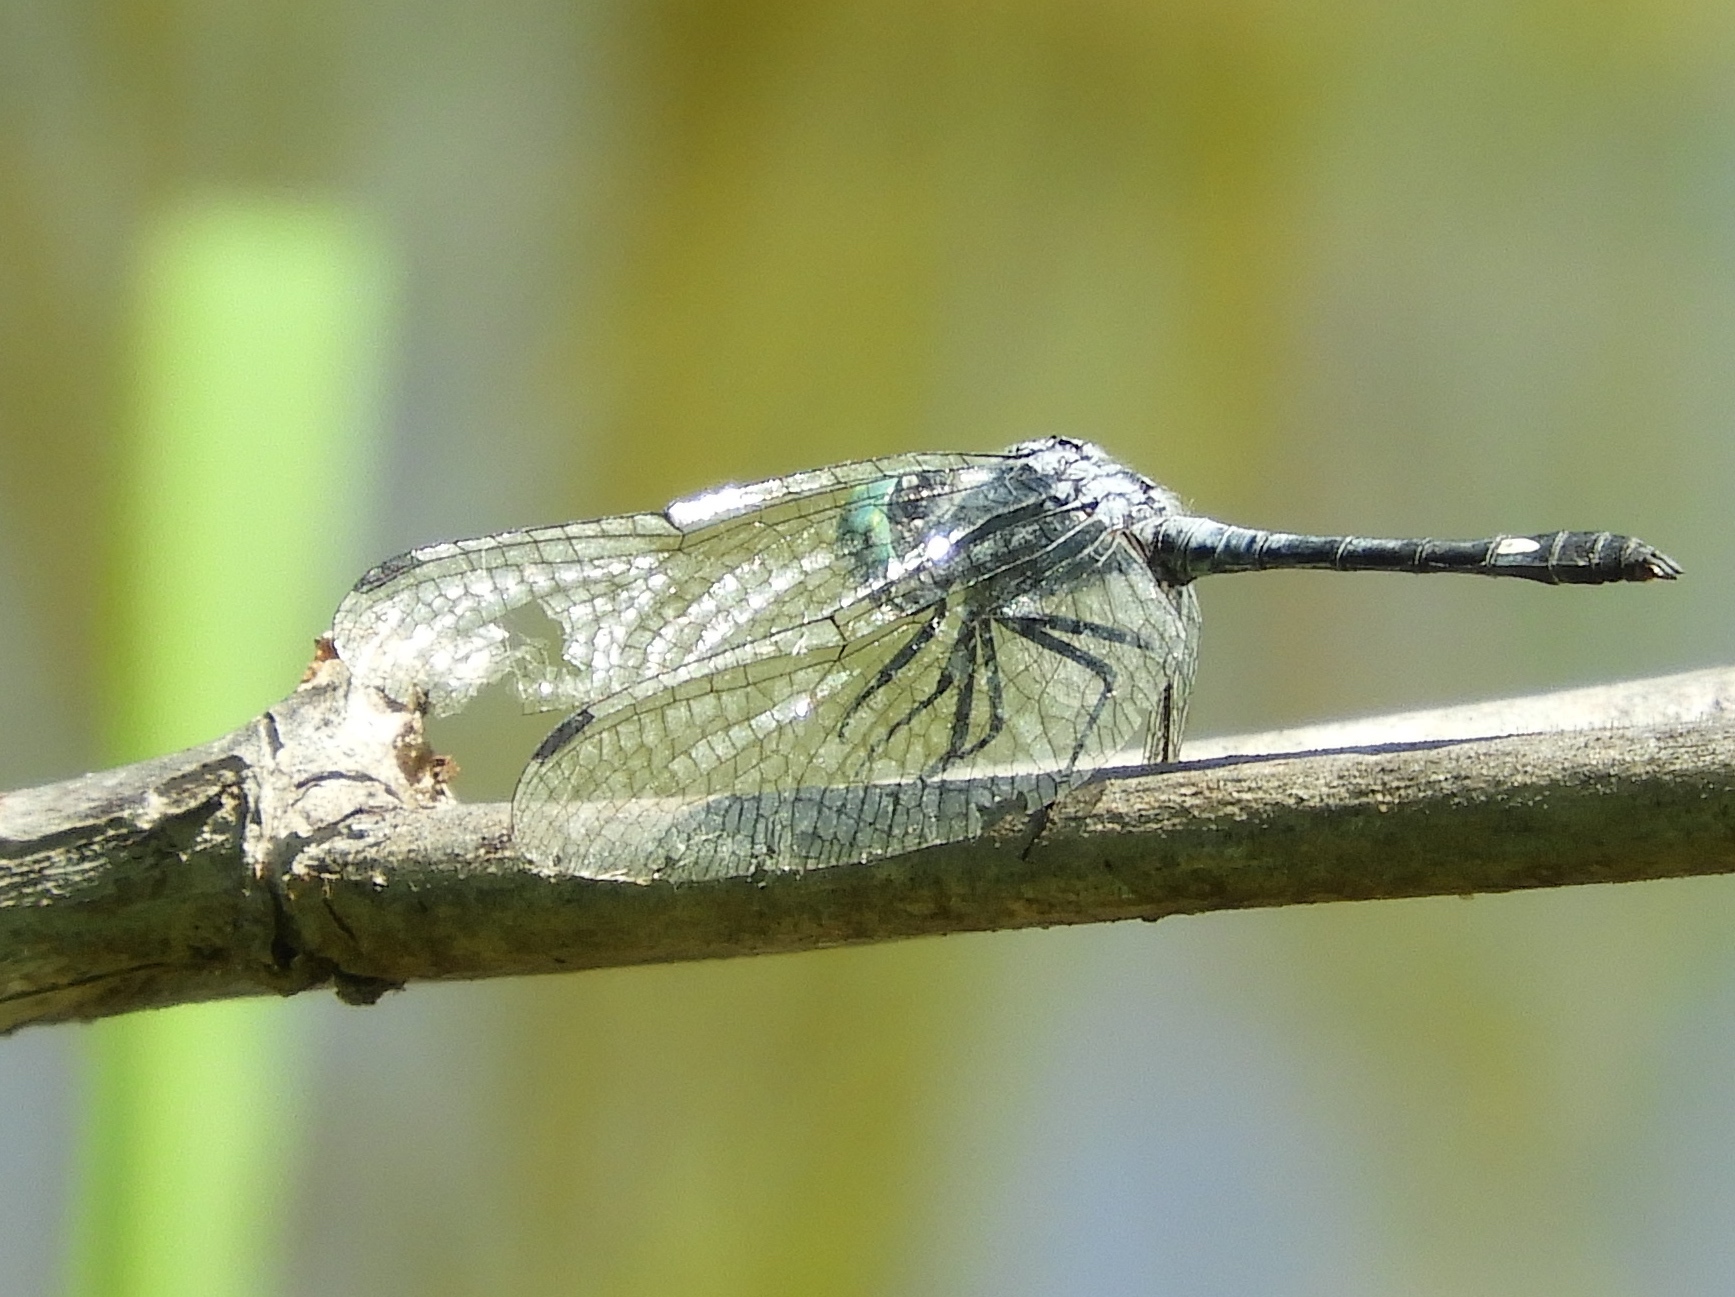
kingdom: Animalia
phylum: Arthropoda
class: Insecta
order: Odonata
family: Libellulidae
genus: Micrathyria
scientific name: Micrathyria aequalis
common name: Spot-tailed dasher
